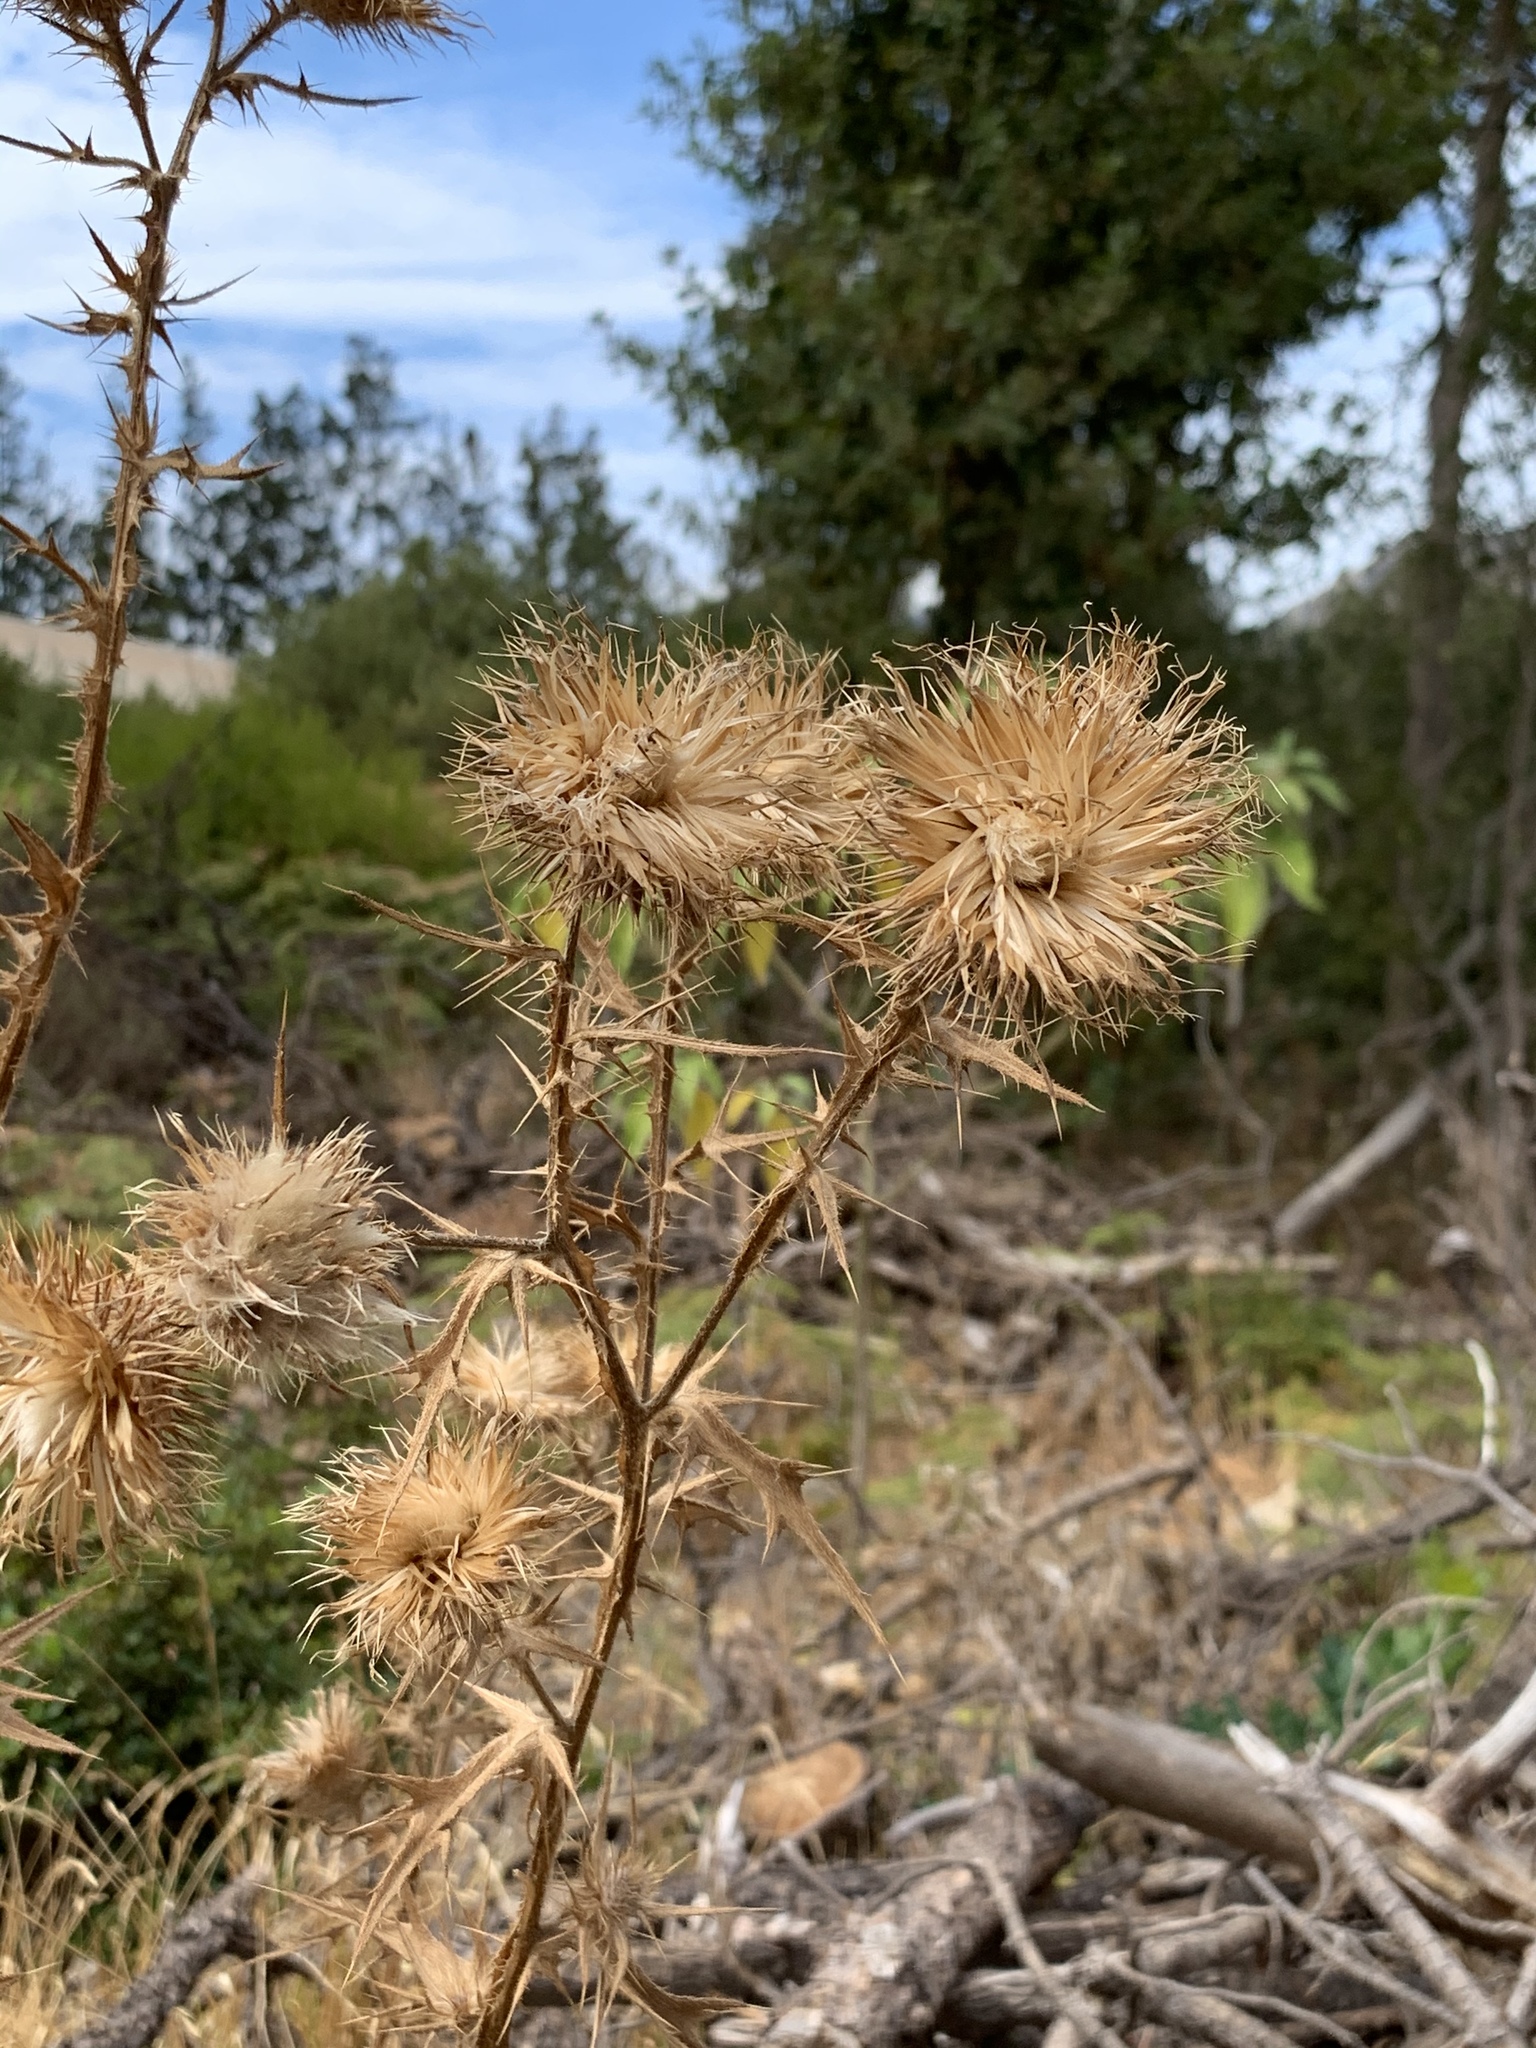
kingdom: Plantae
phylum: Tracheophyta
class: Magnoliopsida
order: Asterales
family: Asteraceae
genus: Cirsium
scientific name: Cirsium vulgare
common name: Bull thistle
